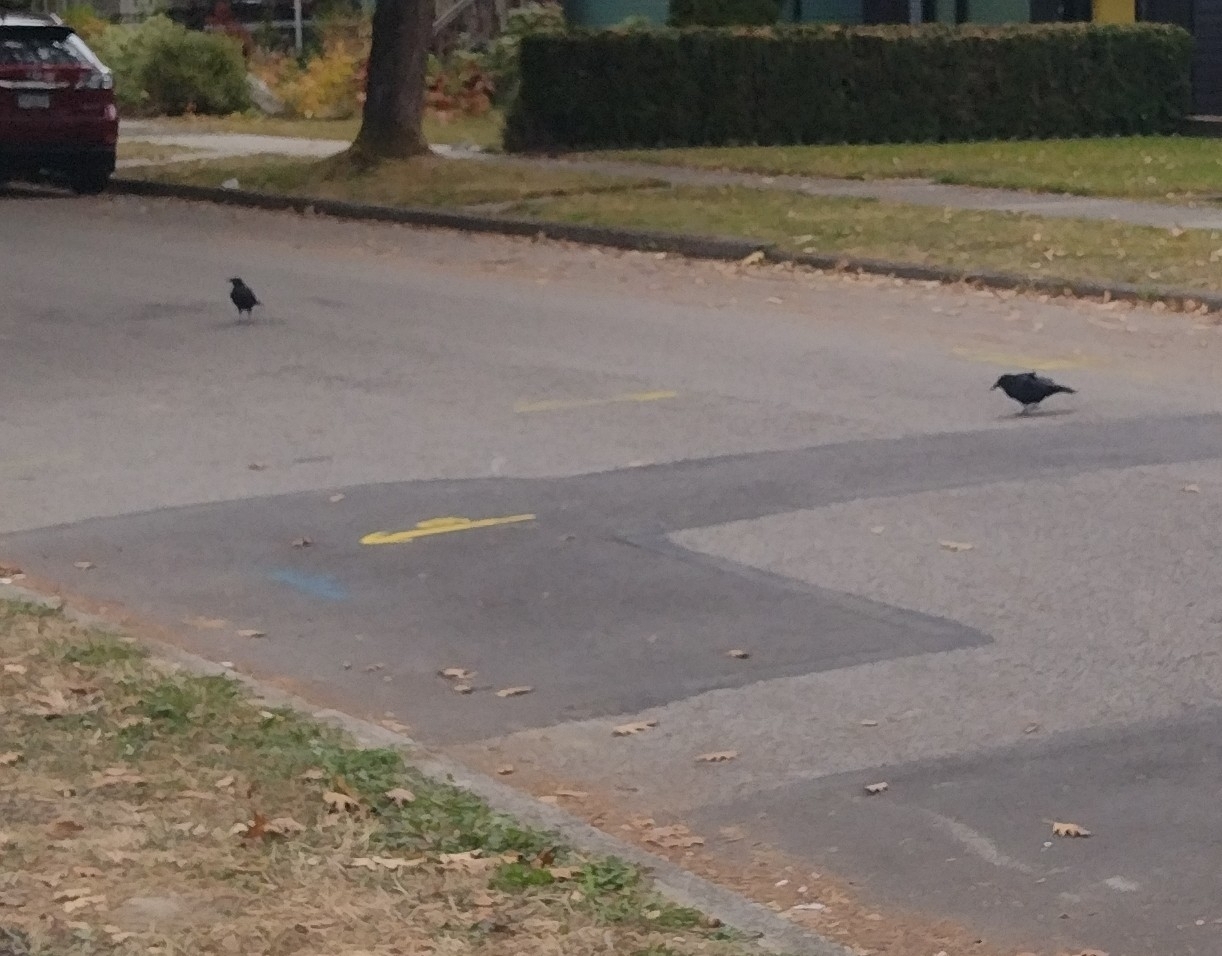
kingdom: Animalia
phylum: Chordata
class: Aves
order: Passeriformes
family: Corvidae
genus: Corvus
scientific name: Corvus brachyrhynchos
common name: American crow
